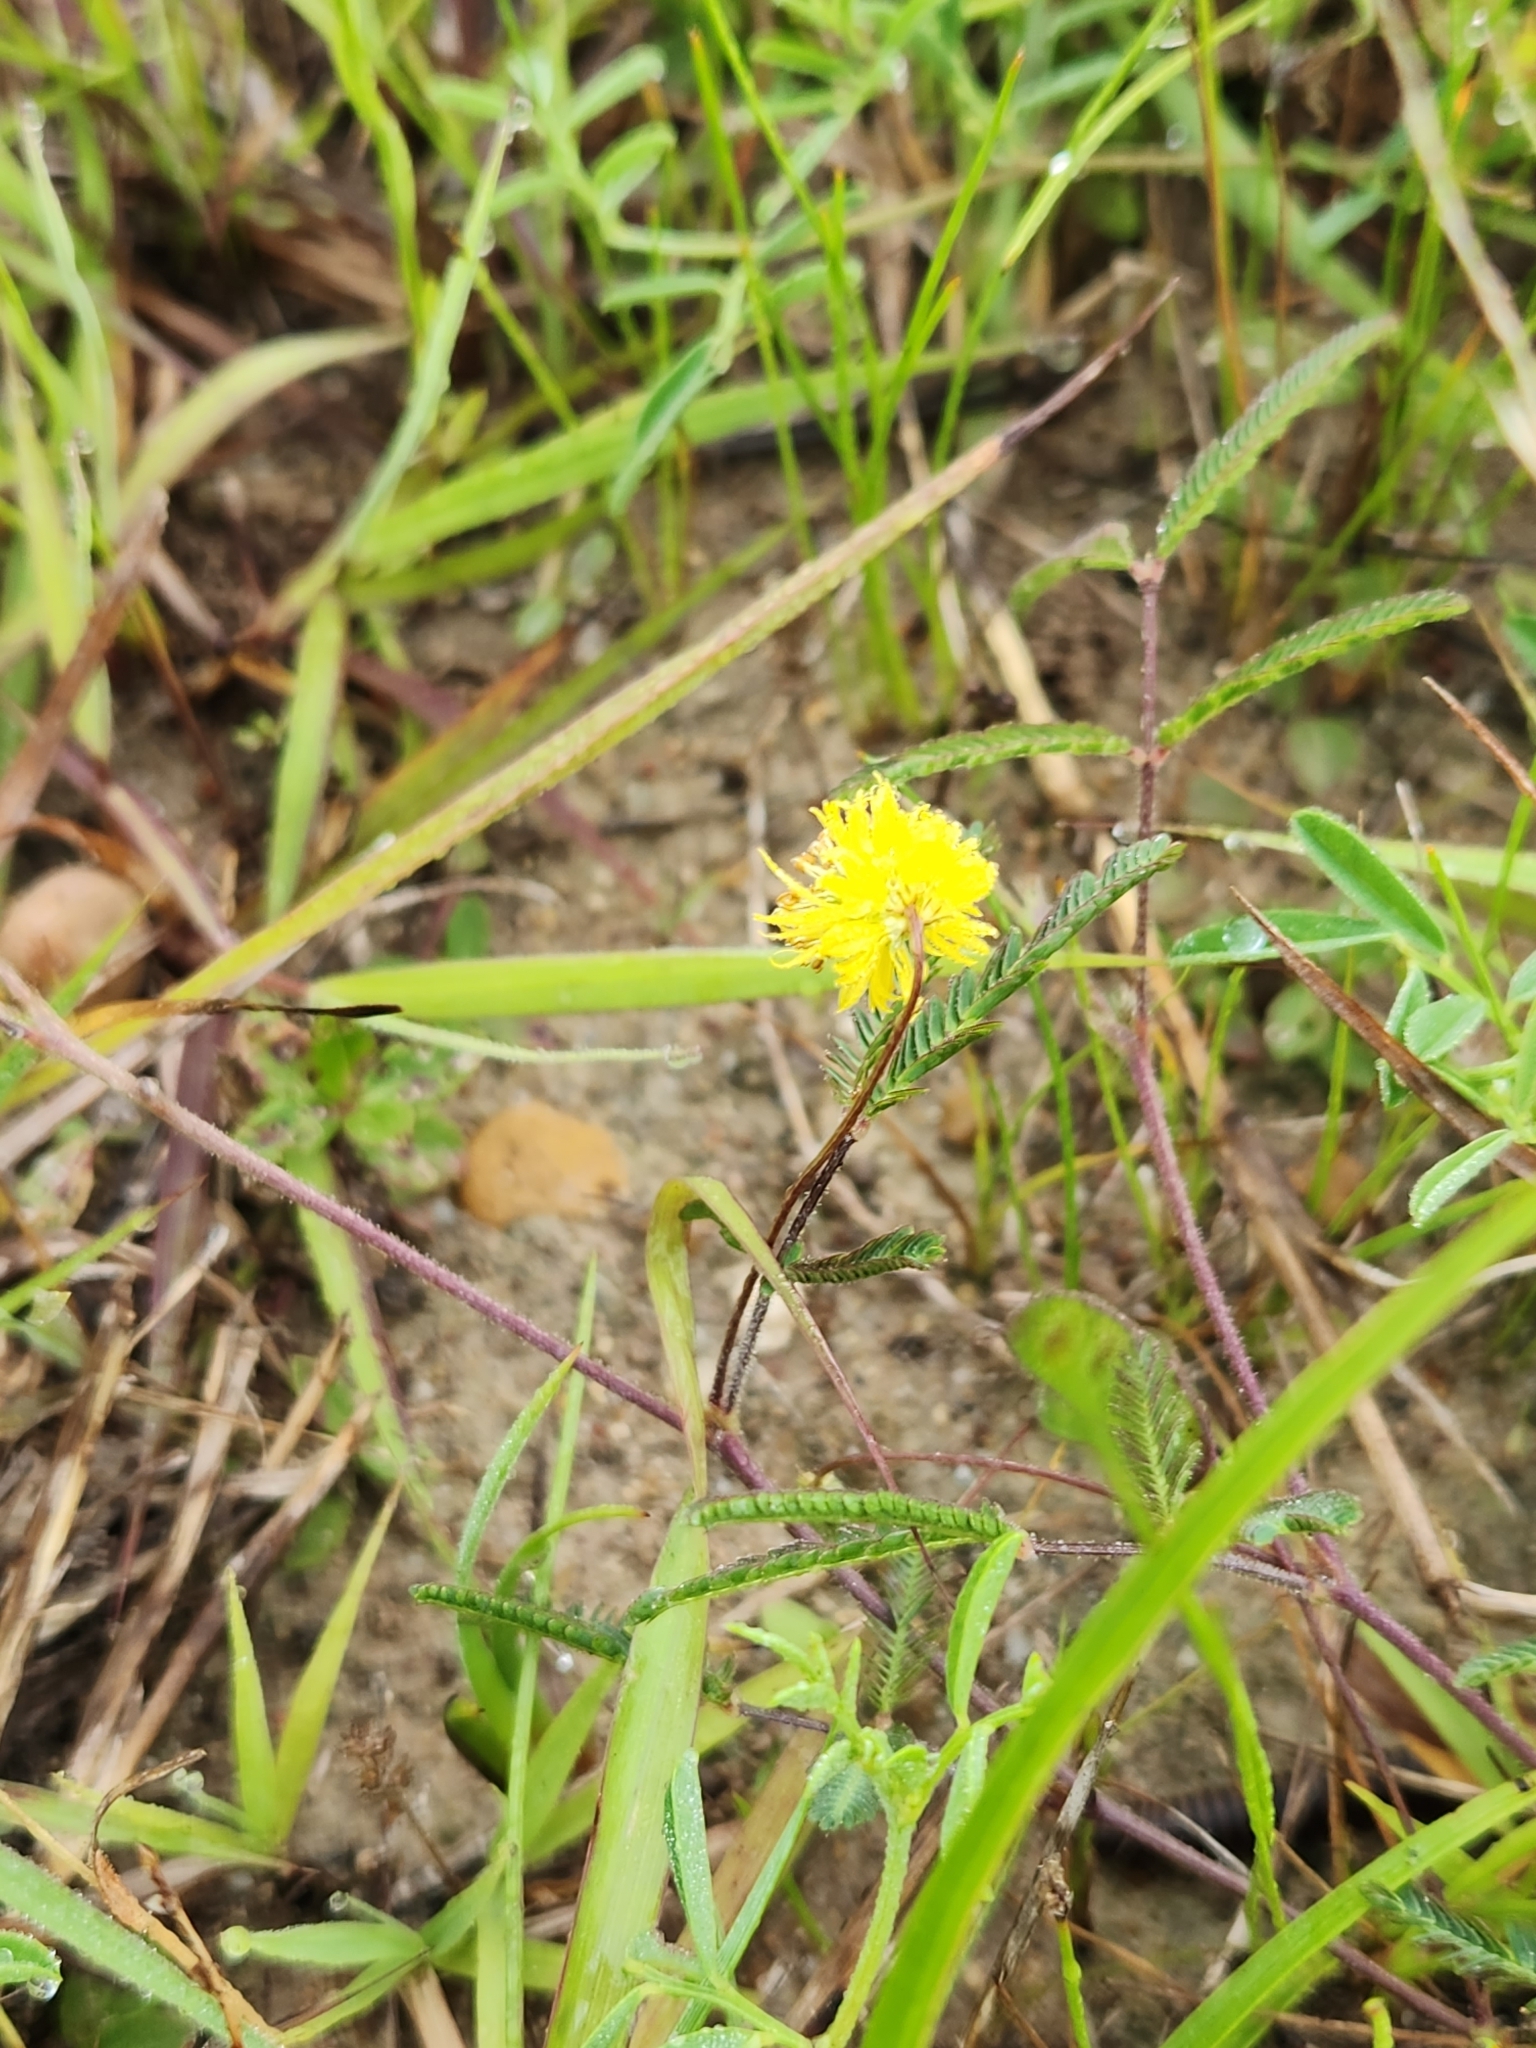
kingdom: Plantae
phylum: Tracheophyta
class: Magnoliopsida
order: Fabales
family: Fabaceae
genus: Neptunia
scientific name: Neptunia pubescens
